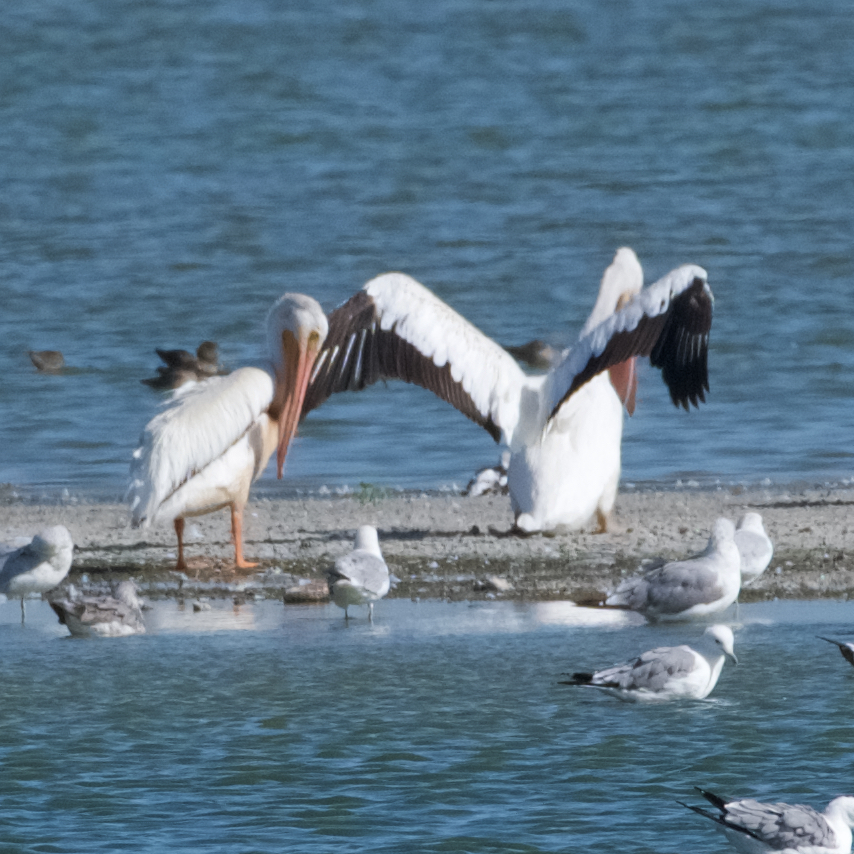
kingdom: Animalia
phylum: Chordata
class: Aves
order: Pelecaniformes
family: Pelecanidae
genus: Pelecanus
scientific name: Pelecanus erythrorhynchos
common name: American white pelican
